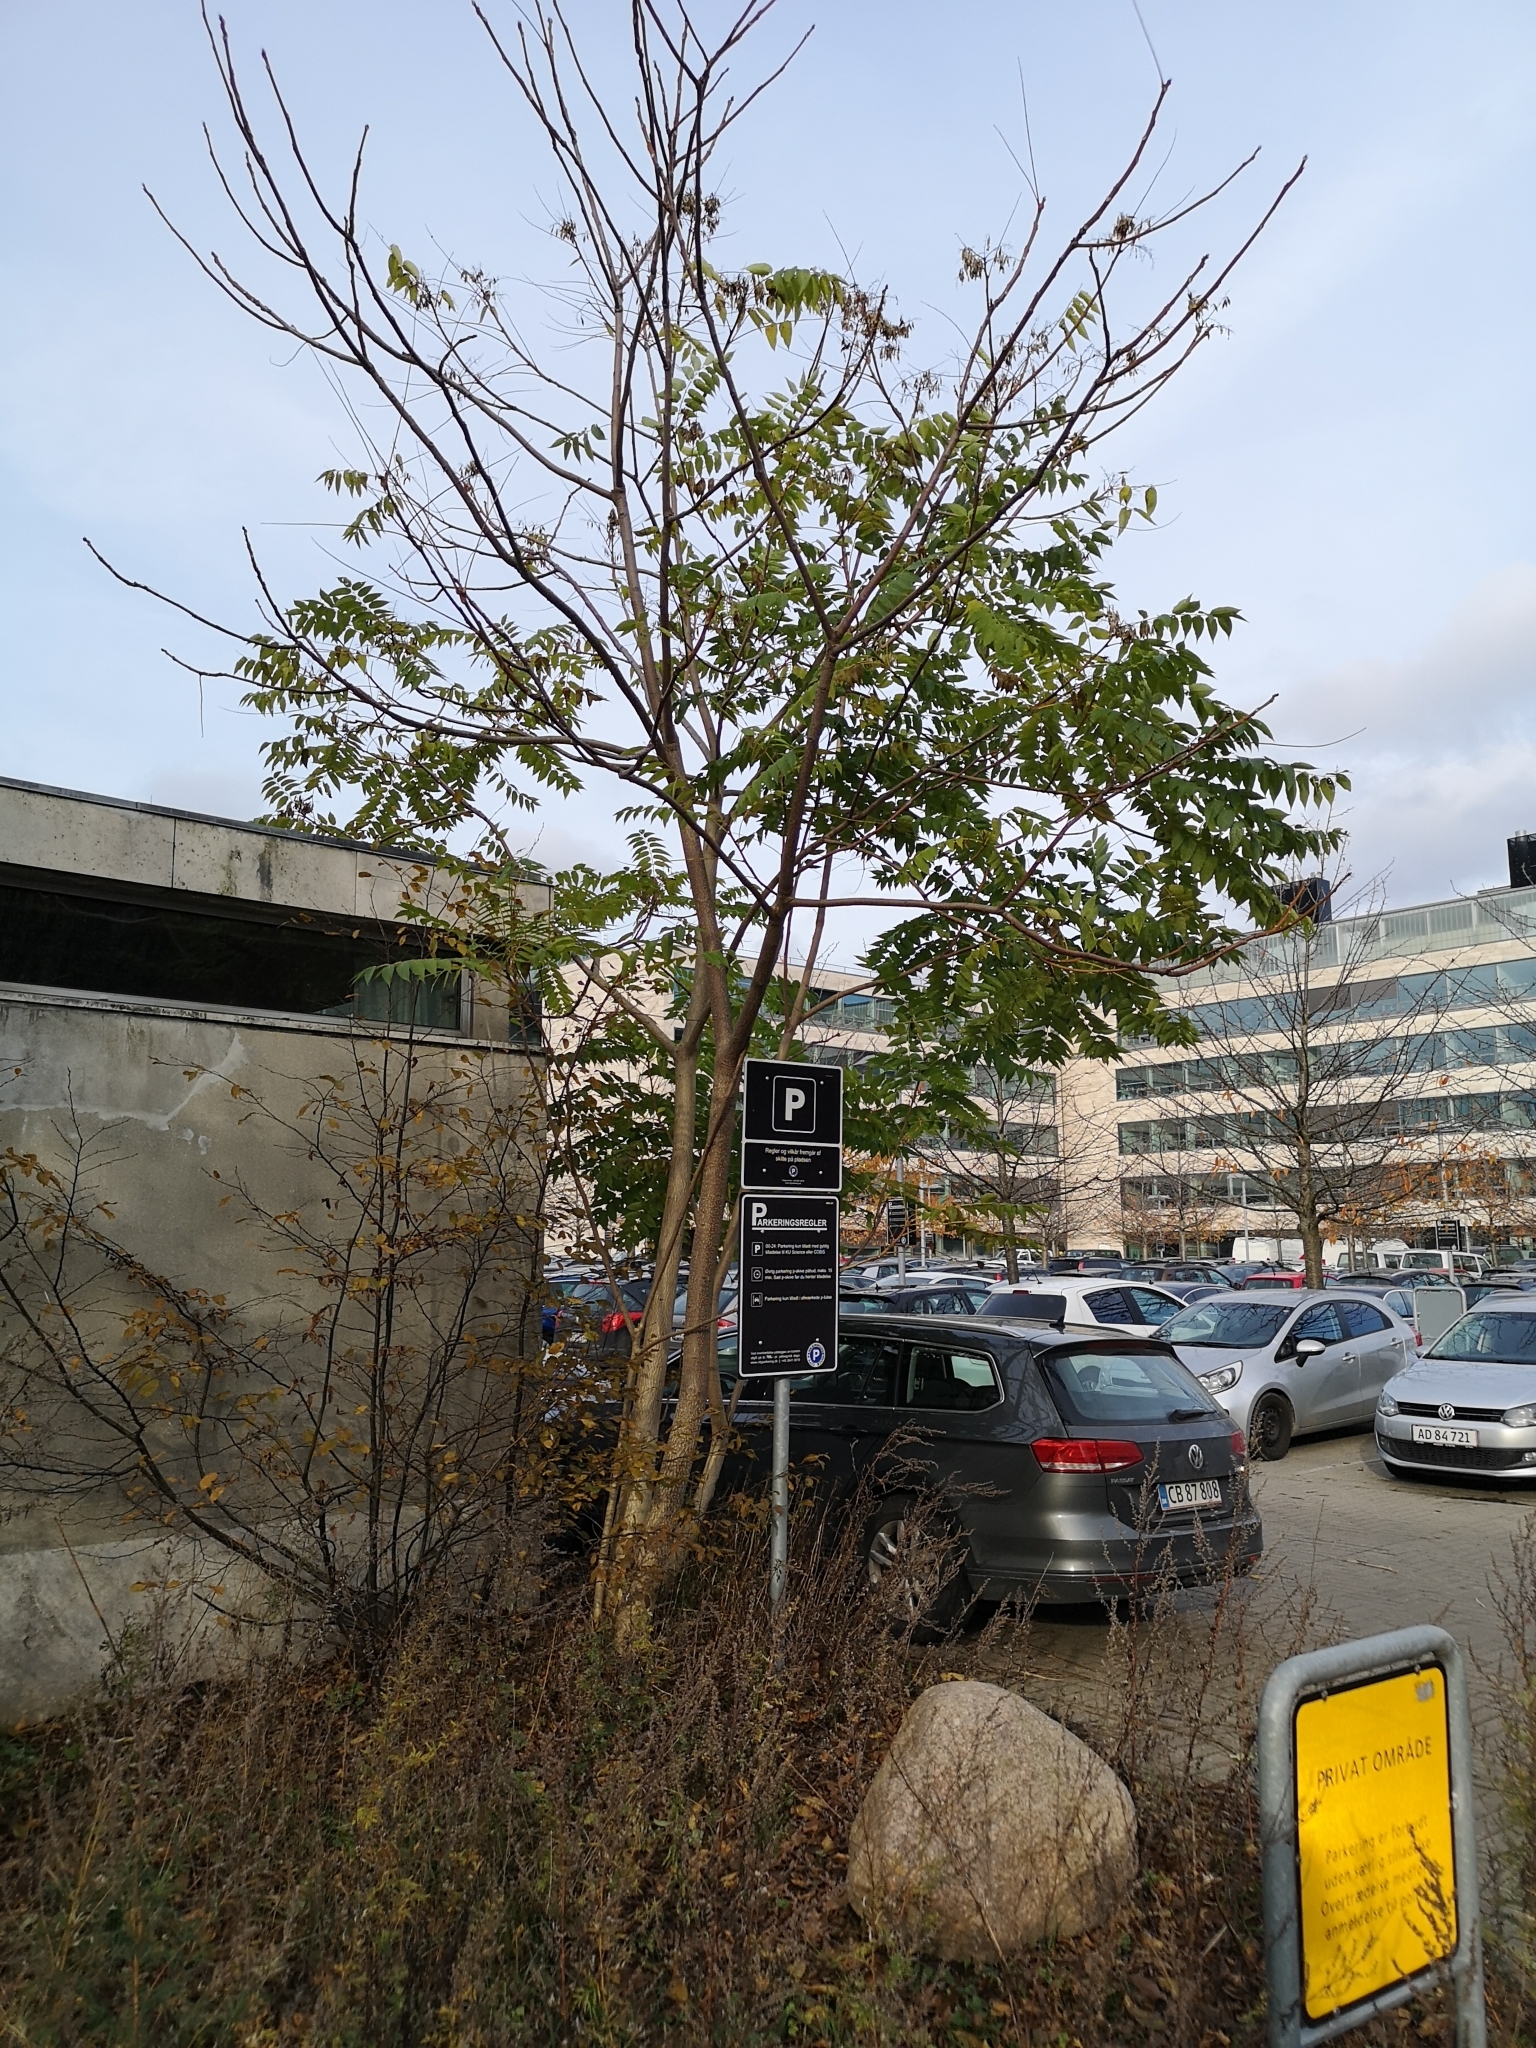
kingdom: Plantae
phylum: Tracheophyta
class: Magnoliopsida
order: Sapindales
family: Simaroubaceae
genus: Ailanthus
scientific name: Ailanthus altissima
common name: Tree-of-heaven
